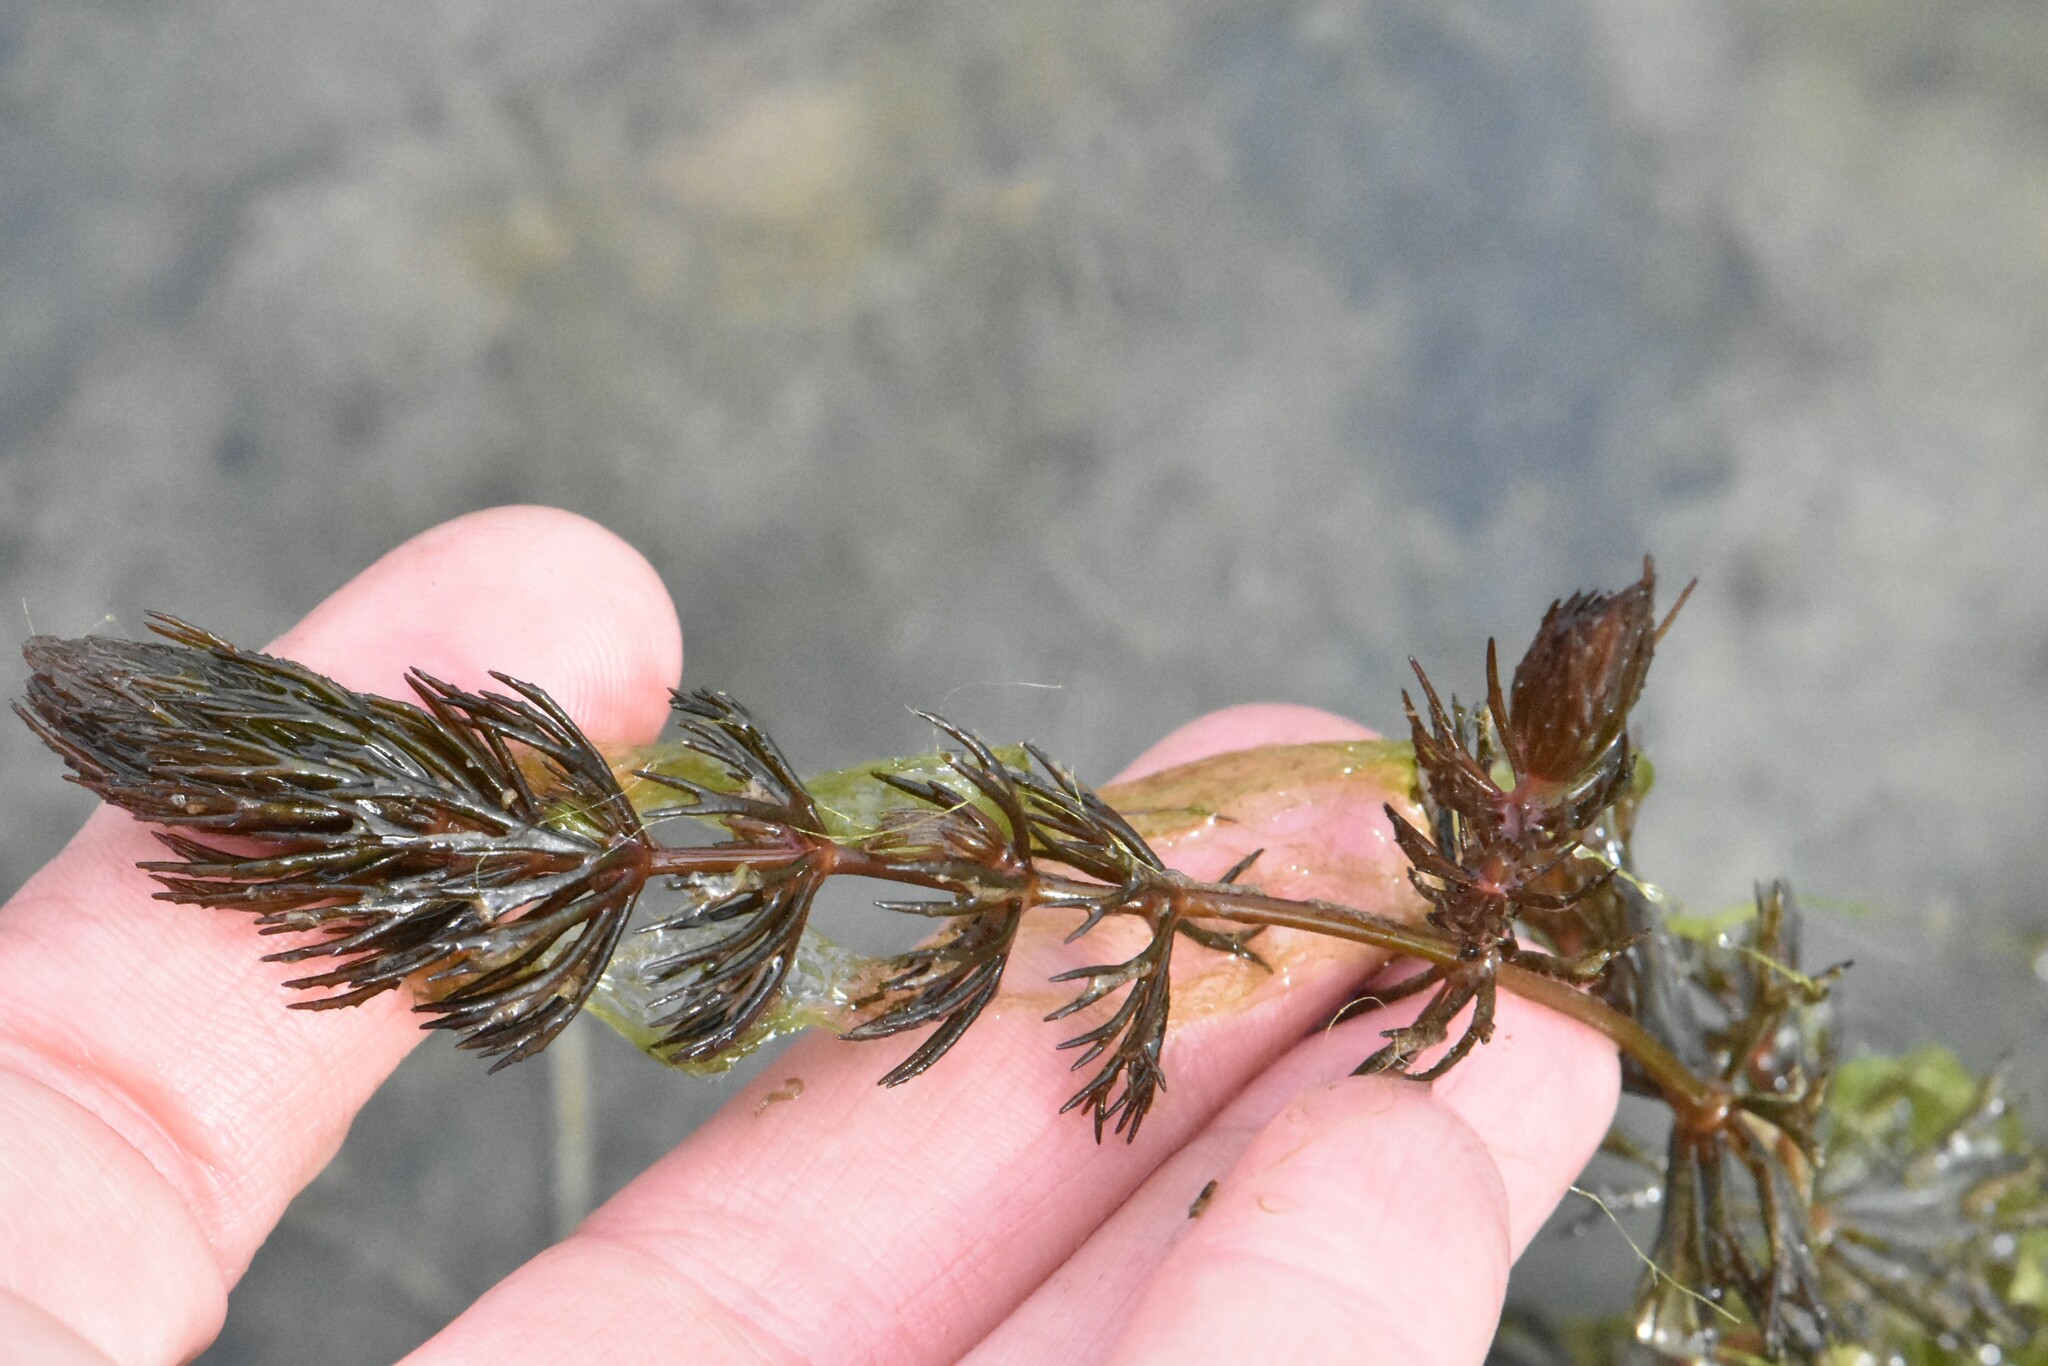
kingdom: Plantae
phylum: Tracheophyta
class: Magnoliopsida
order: Ceratophyllales
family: Ceratophyllaceae
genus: Ceratophyllum
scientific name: Ceratophyllum demersum
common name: Rigid hornwort
